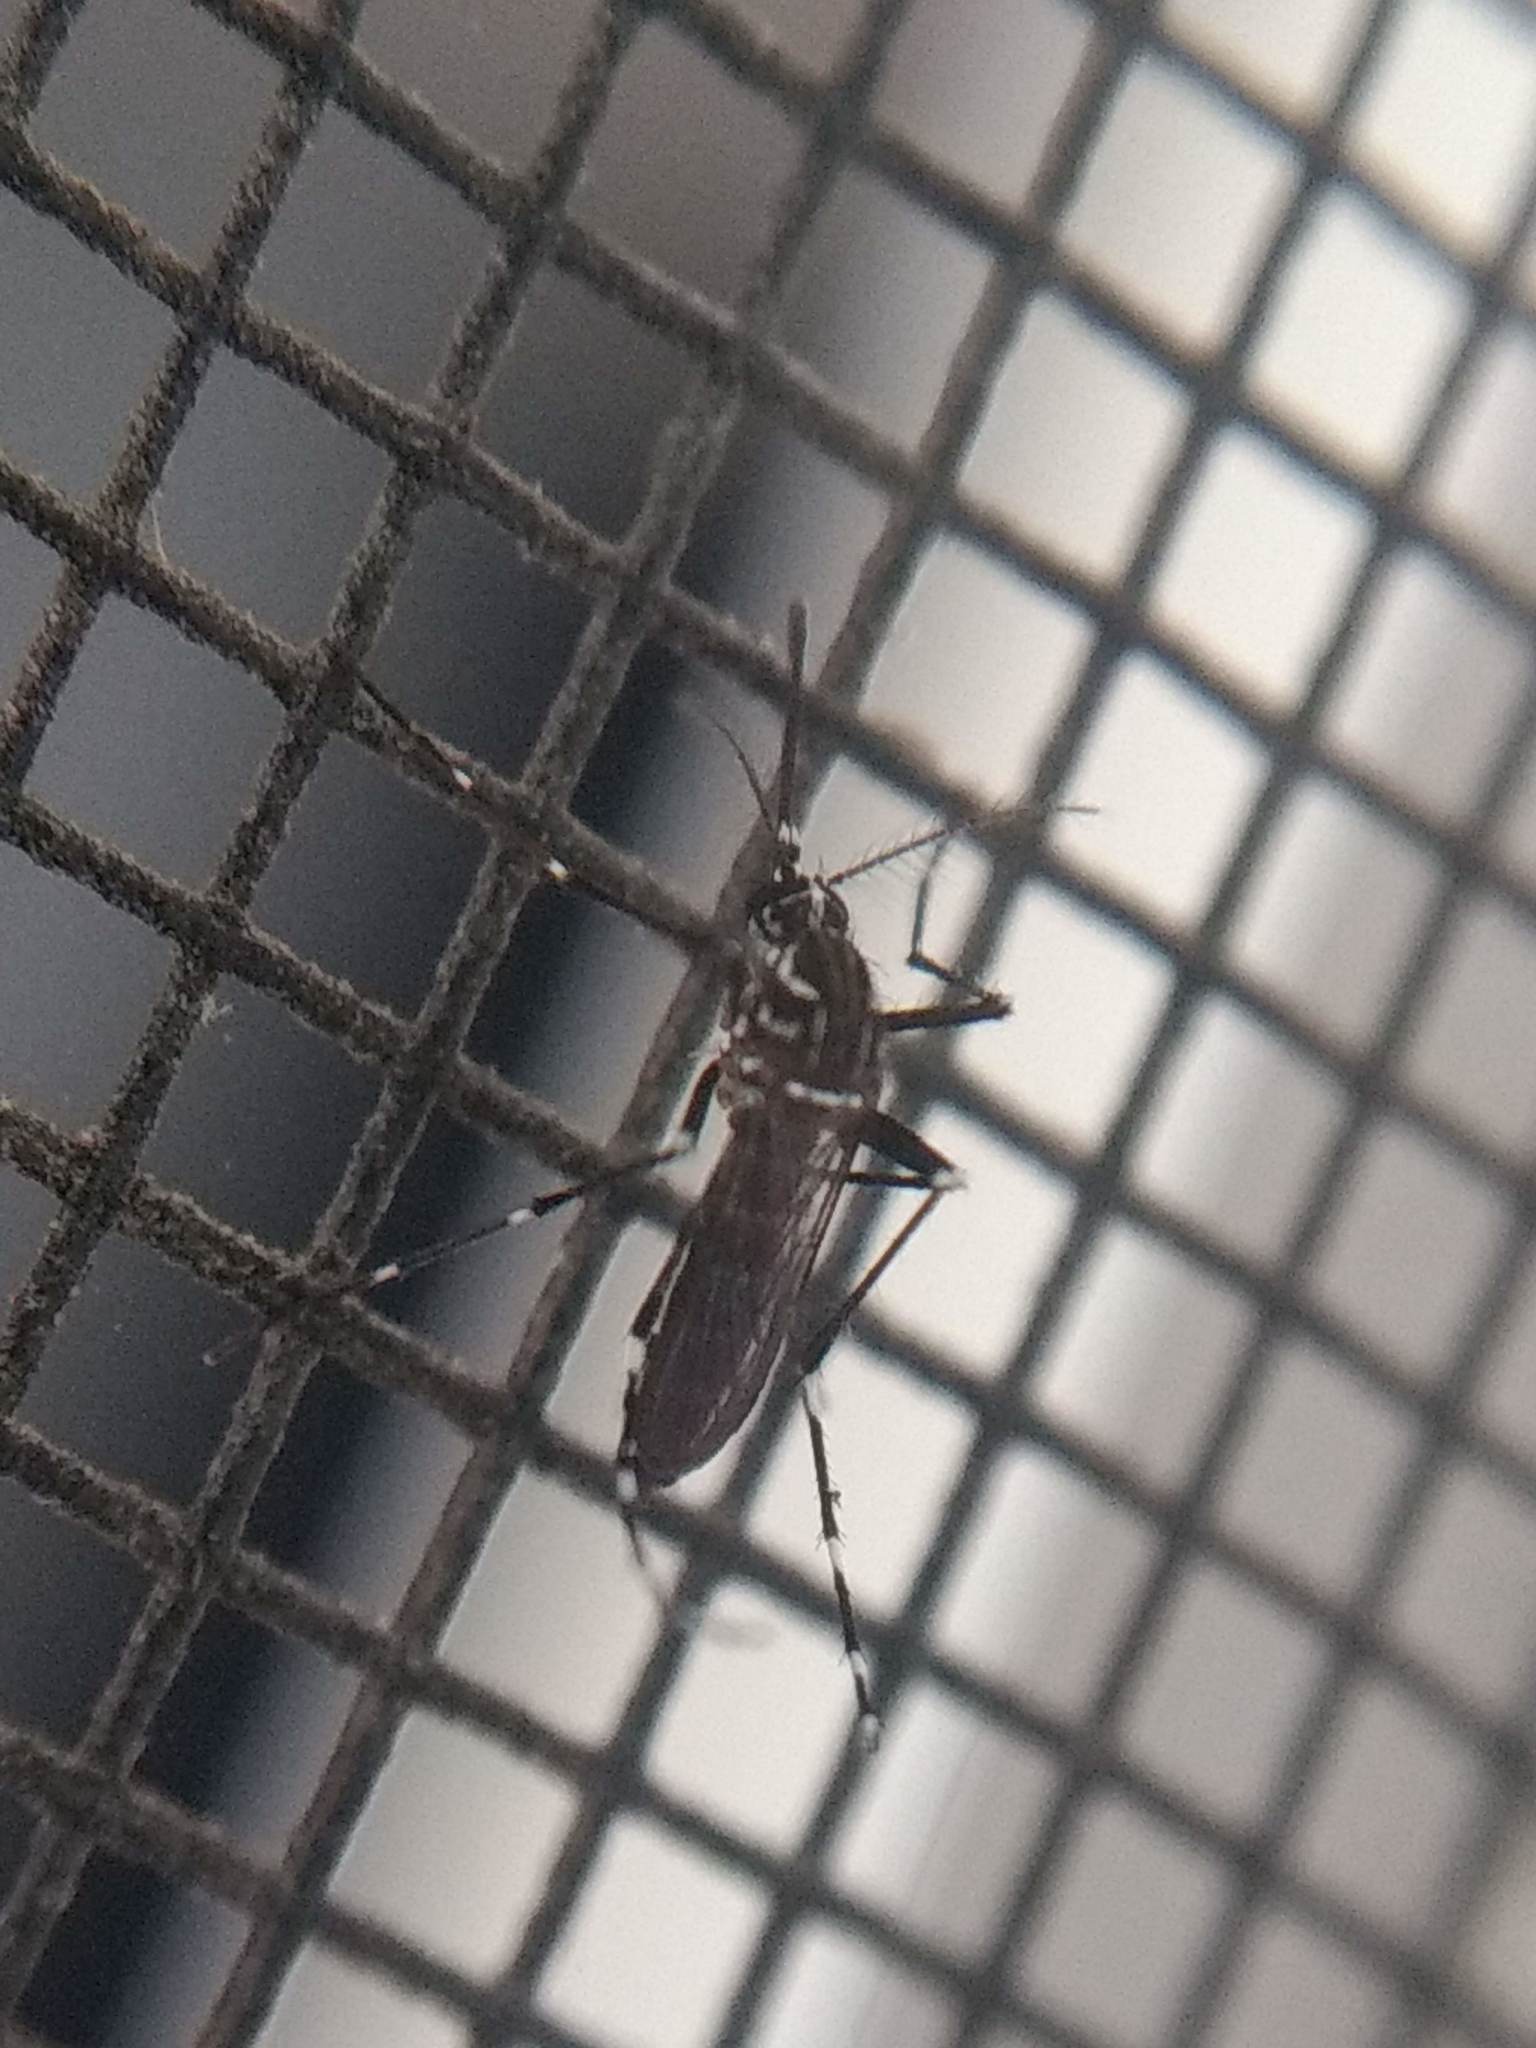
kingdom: Animalia
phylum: Arthropoda
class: Insecta
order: Diptera
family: Culicidae
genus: Aedes
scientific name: Aedes aegypti
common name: Yellow fever mosquito
